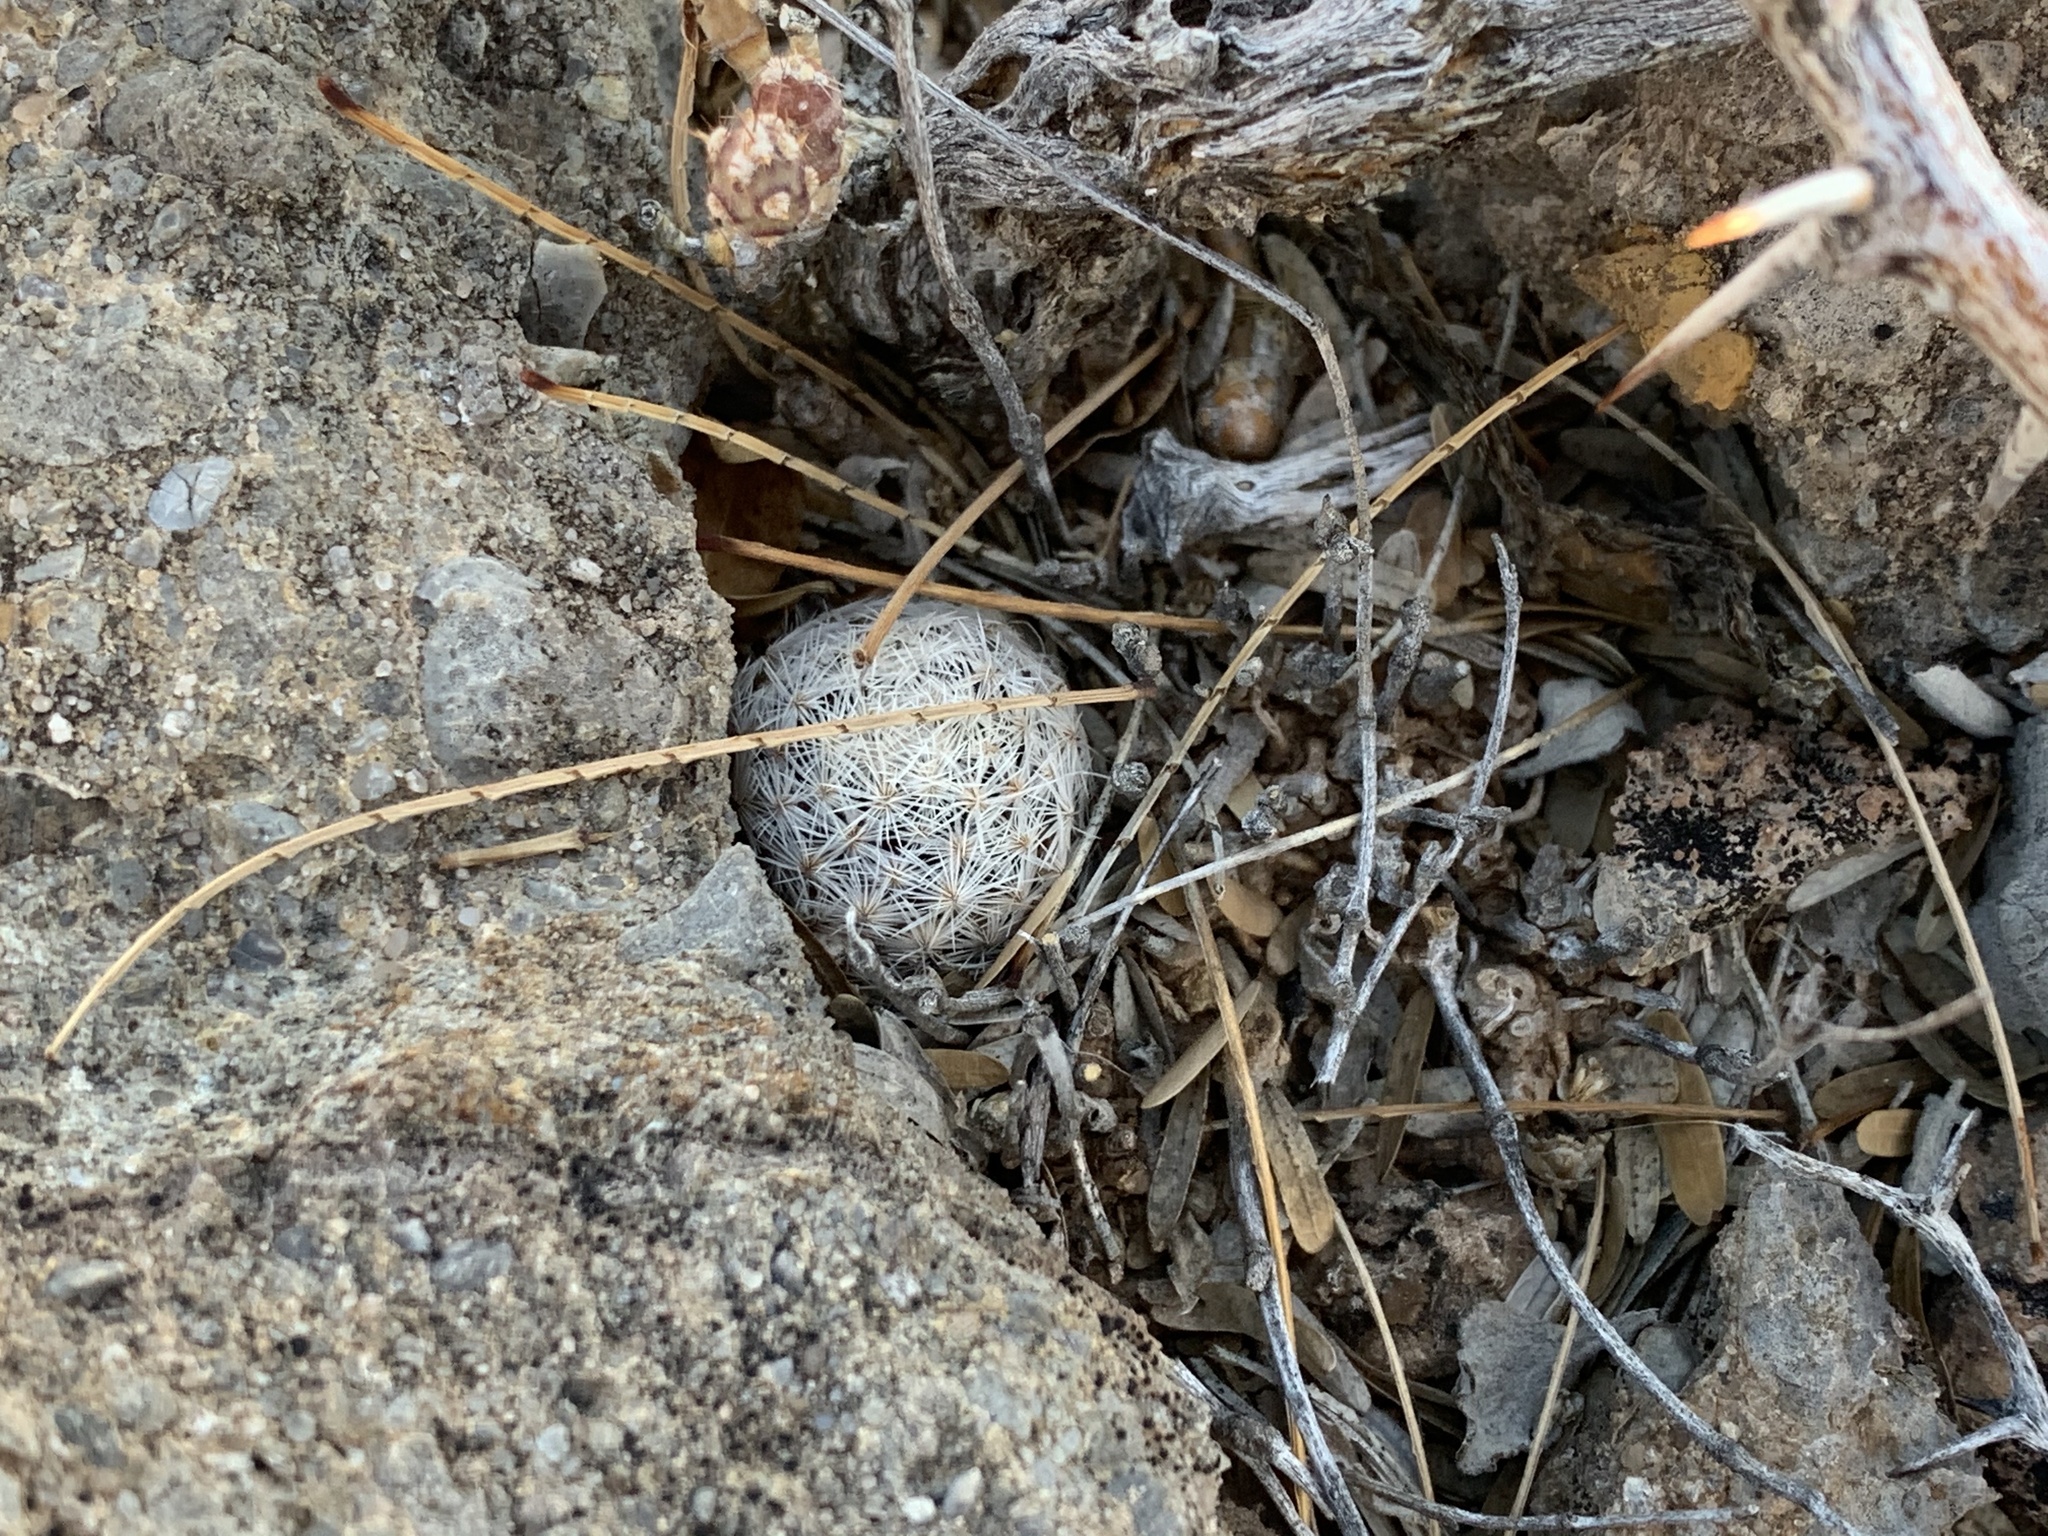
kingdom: Plantae
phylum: Tracheophyta
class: Magnoliopsida
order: Caryophyllales
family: Cactaceae
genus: Mammillaria
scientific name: Mammillaria lasiacantha
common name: Lace-spine nipple cactus
